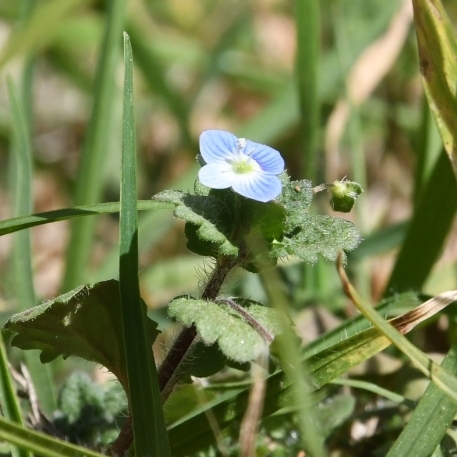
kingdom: Plantae
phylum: Tracheophyta
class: Magnoliopsida
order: Lamiales
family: Plantaginaceae
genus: Veronica
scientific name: Veronica persica
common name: Common field-speedwell
